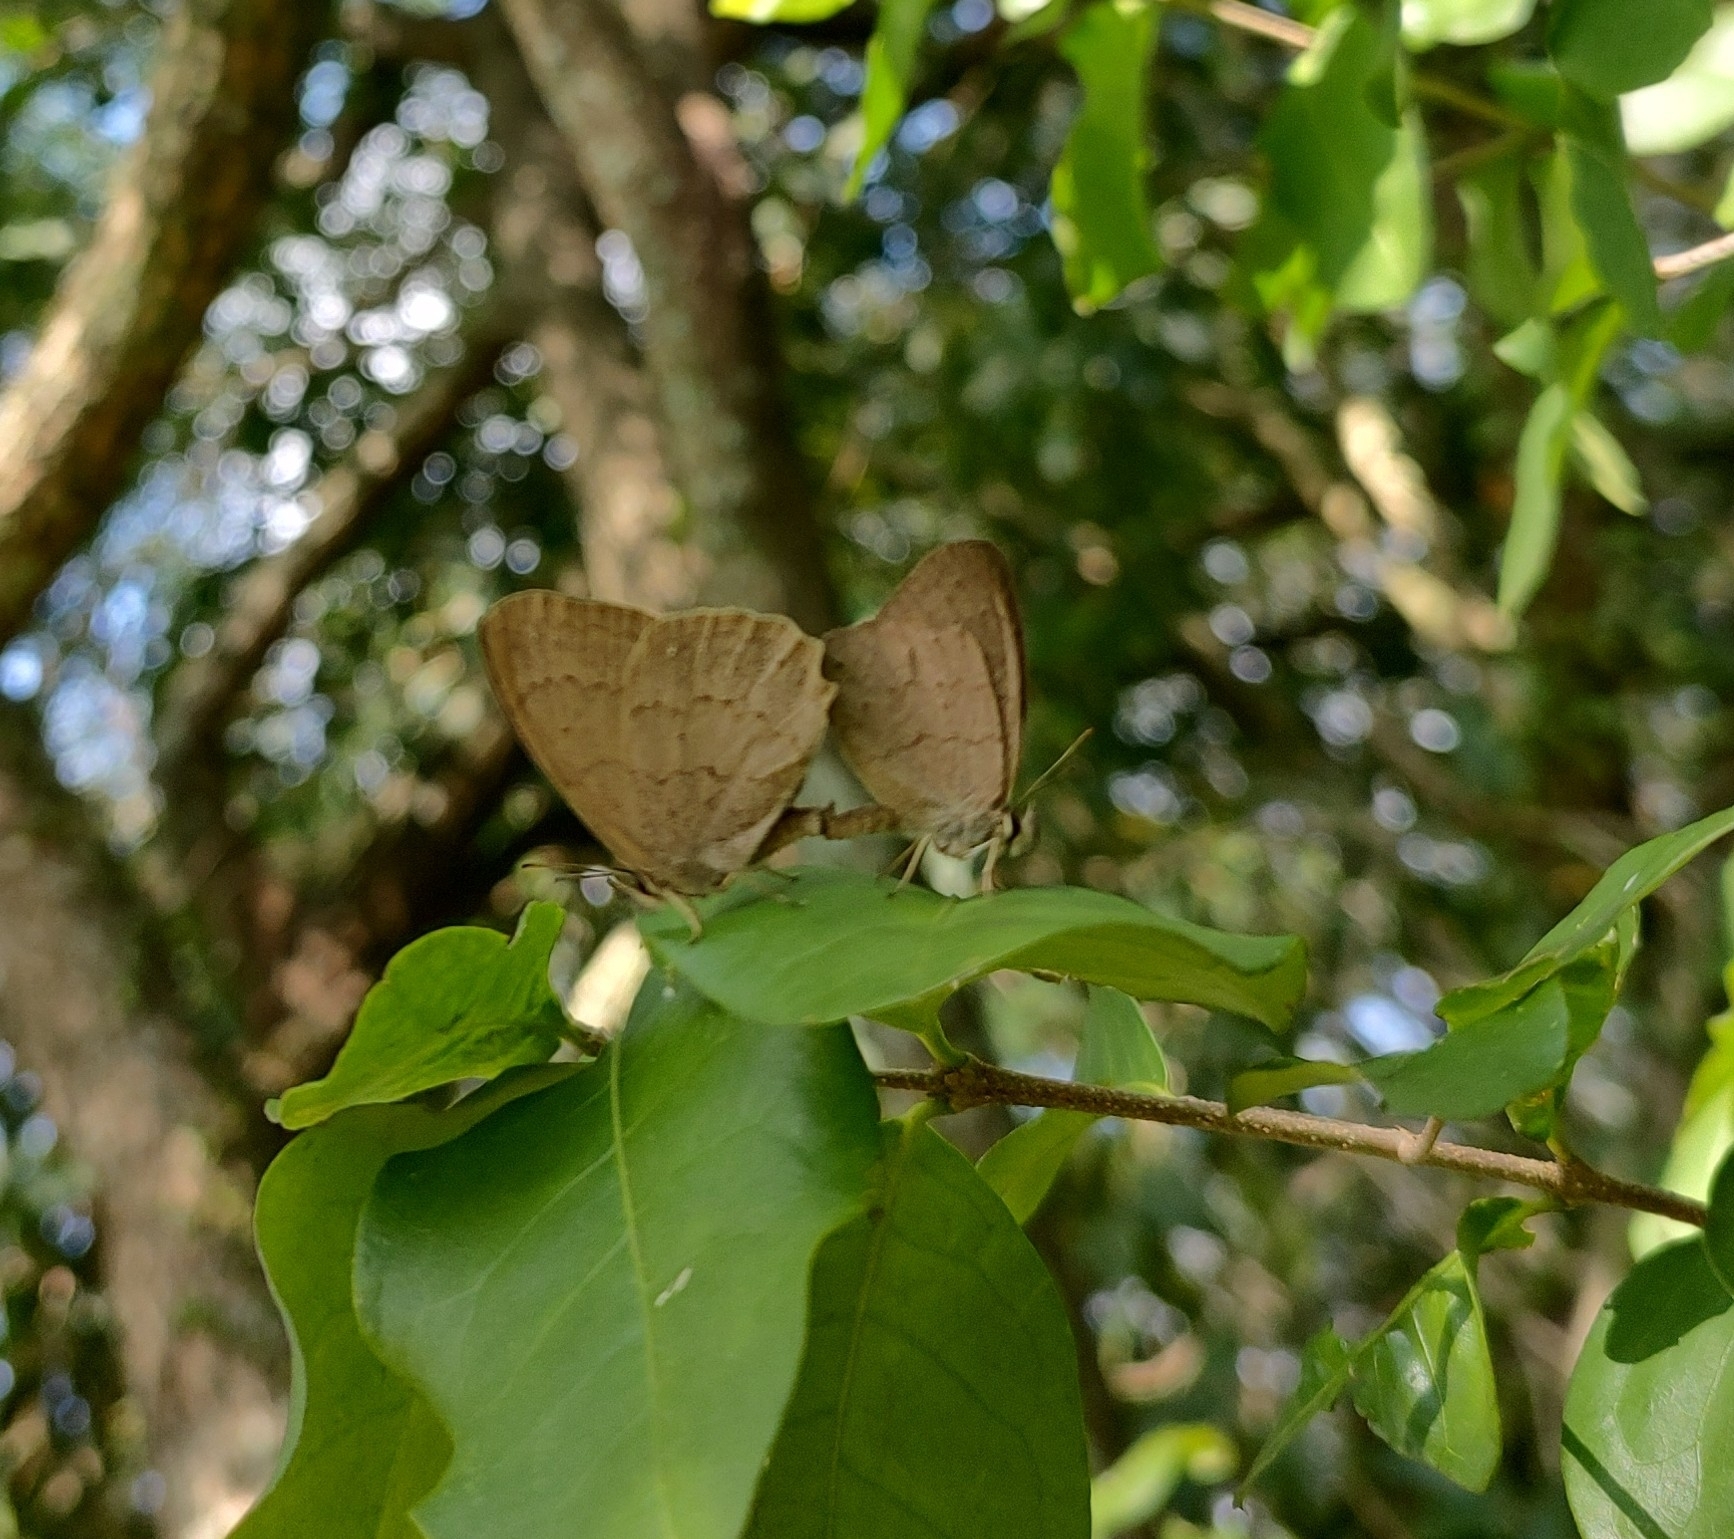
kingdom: Animalia
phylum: Arthropoda
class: Insecta
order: Lepidoptera
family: Nymphalidae
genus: Euptychia
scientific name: Euptychia
